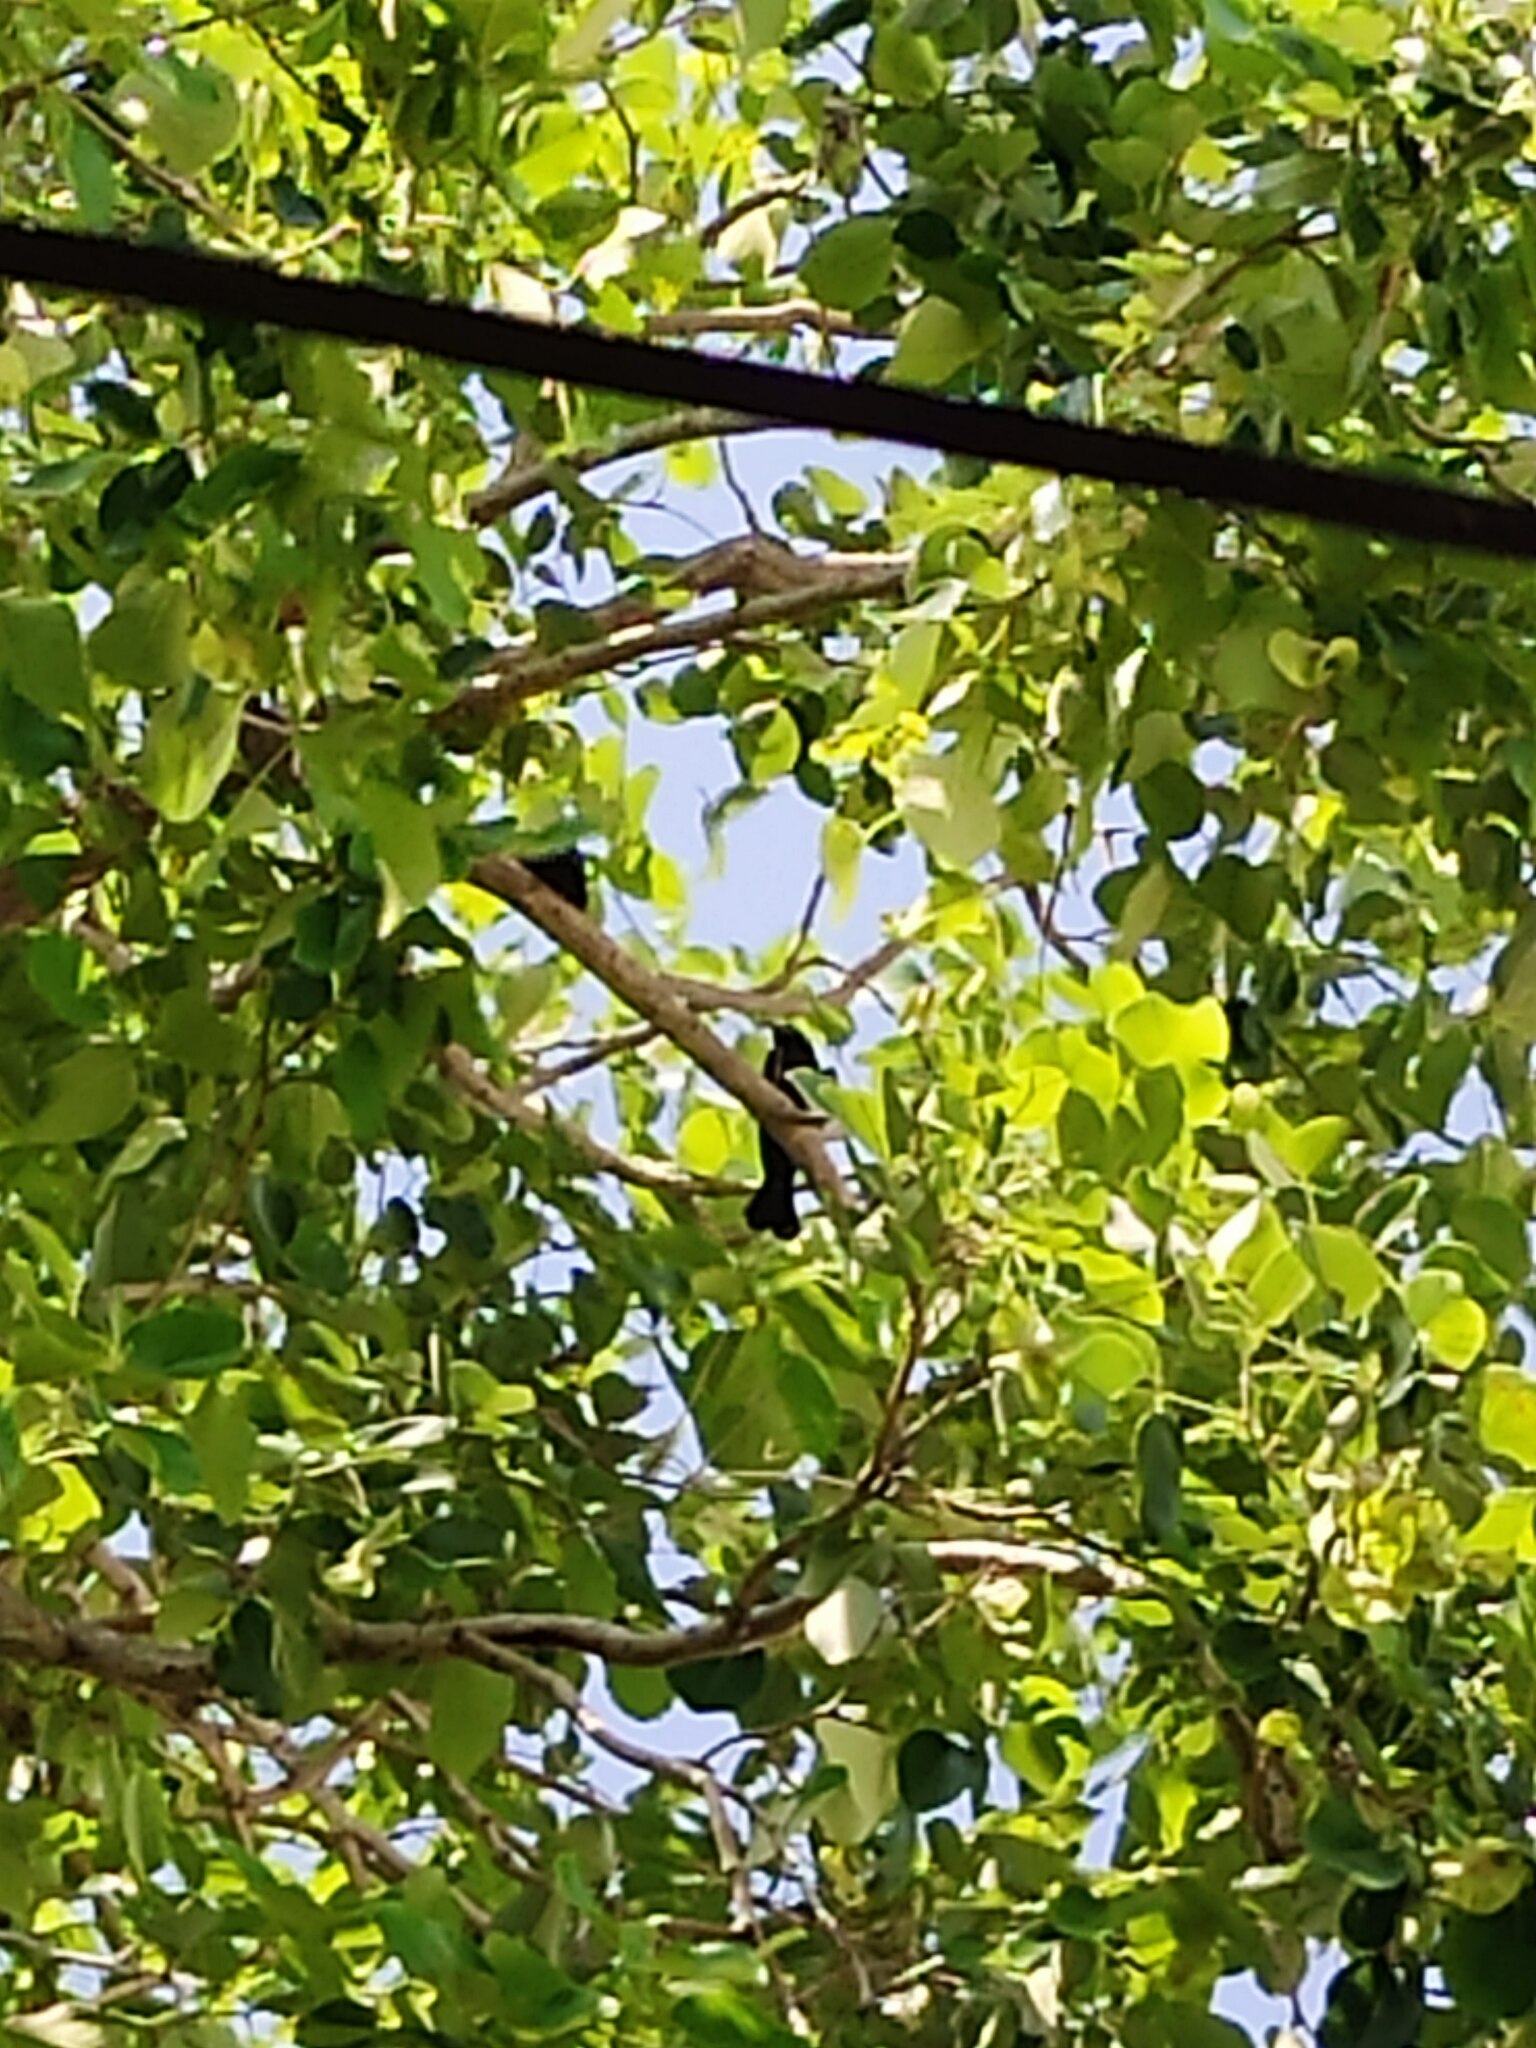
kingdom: Animalia
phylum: Chordata
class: Aves
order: Passeriformes
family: Dicruridae
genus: Dicrurus
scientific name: Dicrurus macrocercus
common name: Black drongo
